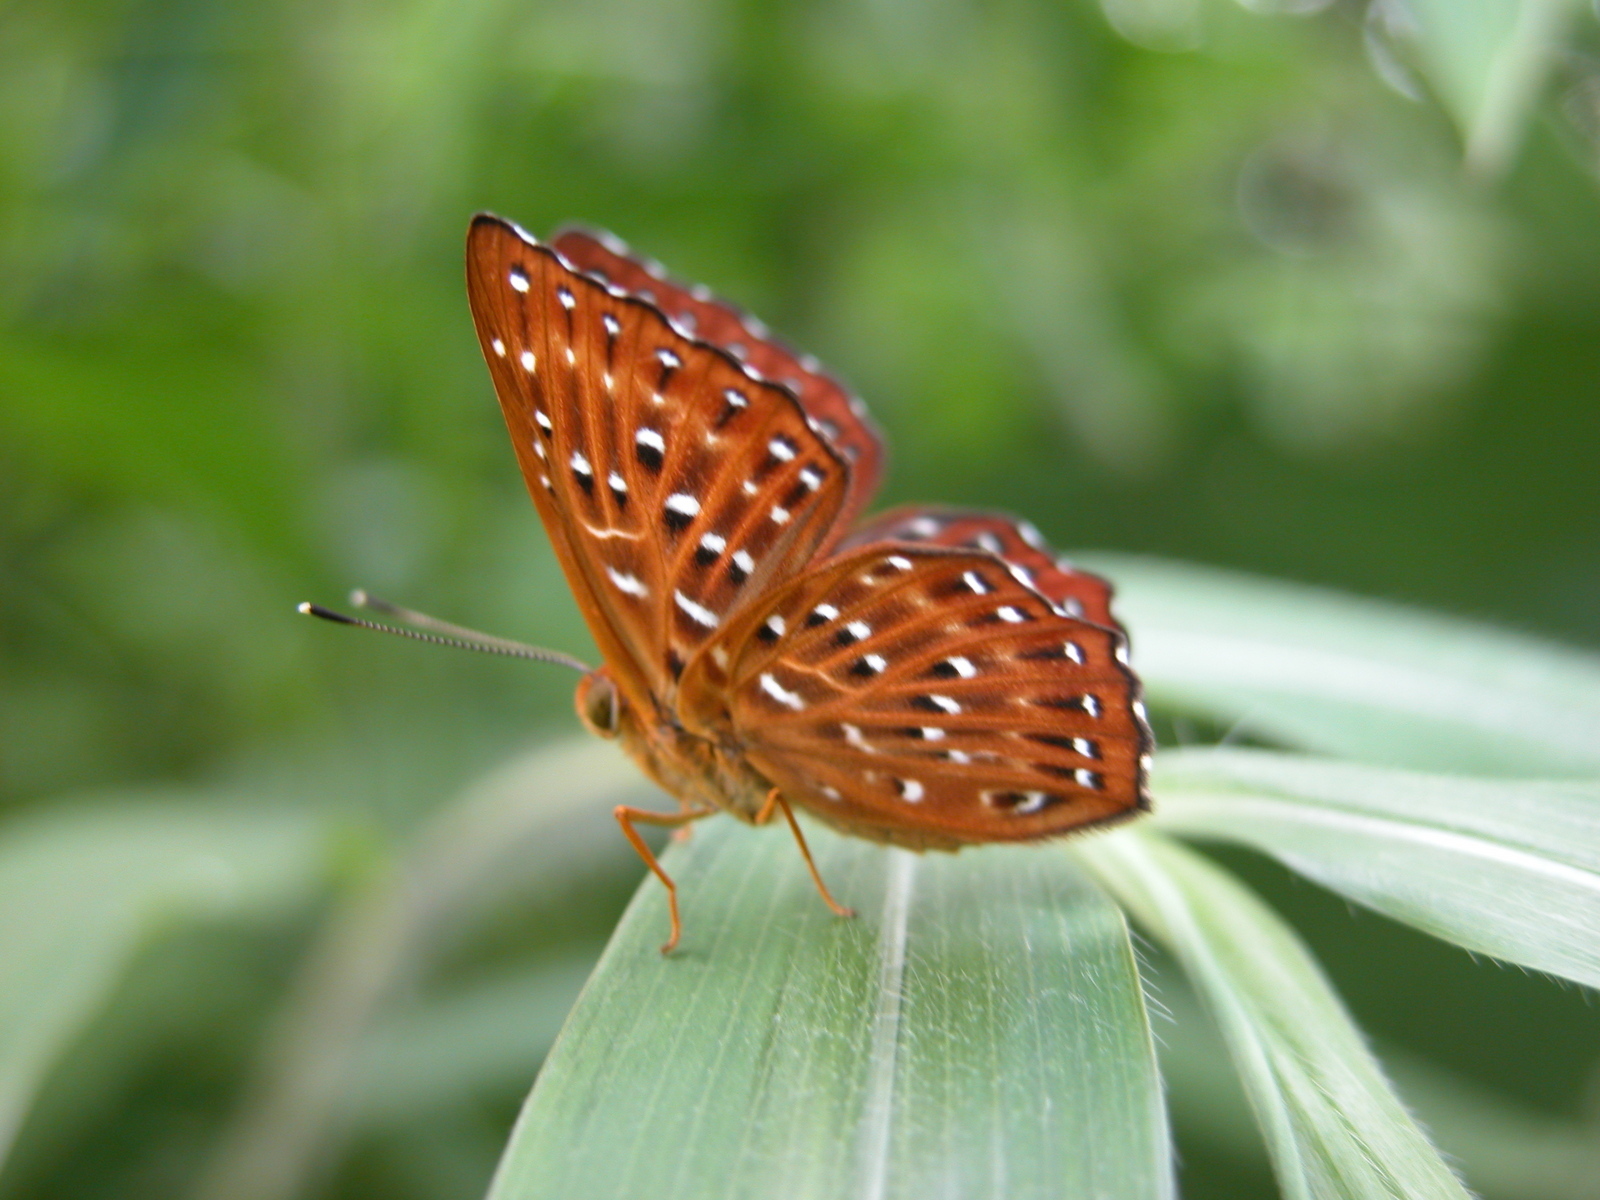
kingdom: Animalia
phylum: Arthropoda
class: Insecta
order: Lepidoptera
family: Riodinidae
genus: Zemeros
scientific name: Zemeros flegyas
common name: Punchinello
